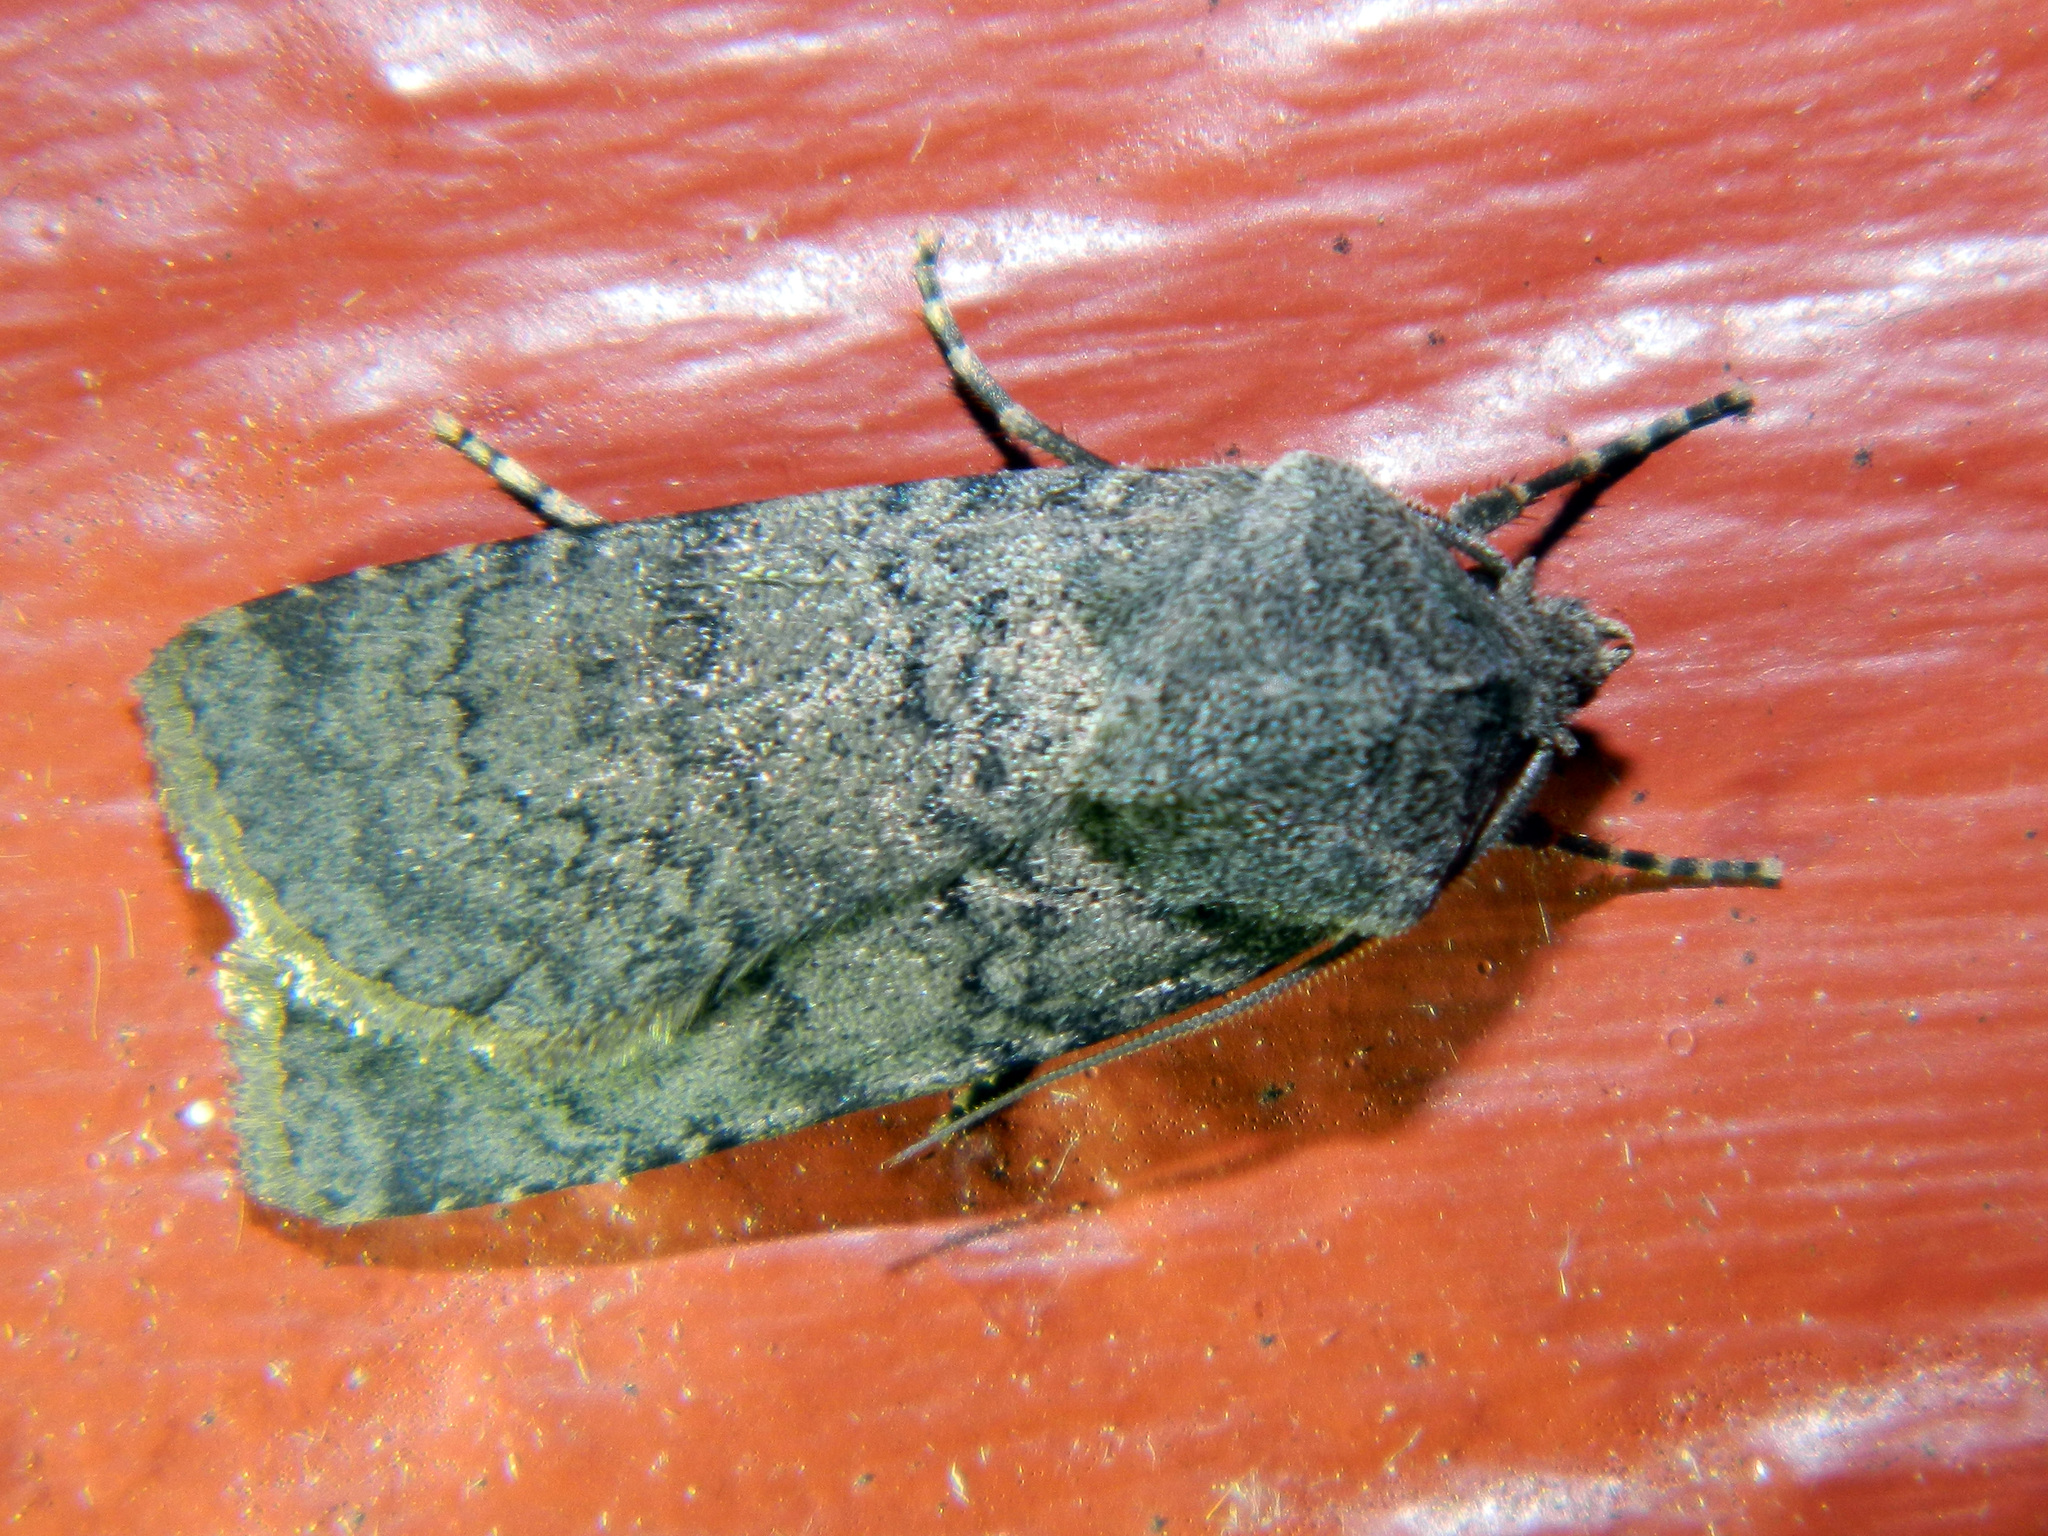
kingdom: Animalia
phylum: Arthropoda
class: Insecta
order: Lepidoptera
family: Noctuidae
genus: Euxoa
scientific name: Euxoa comosa
